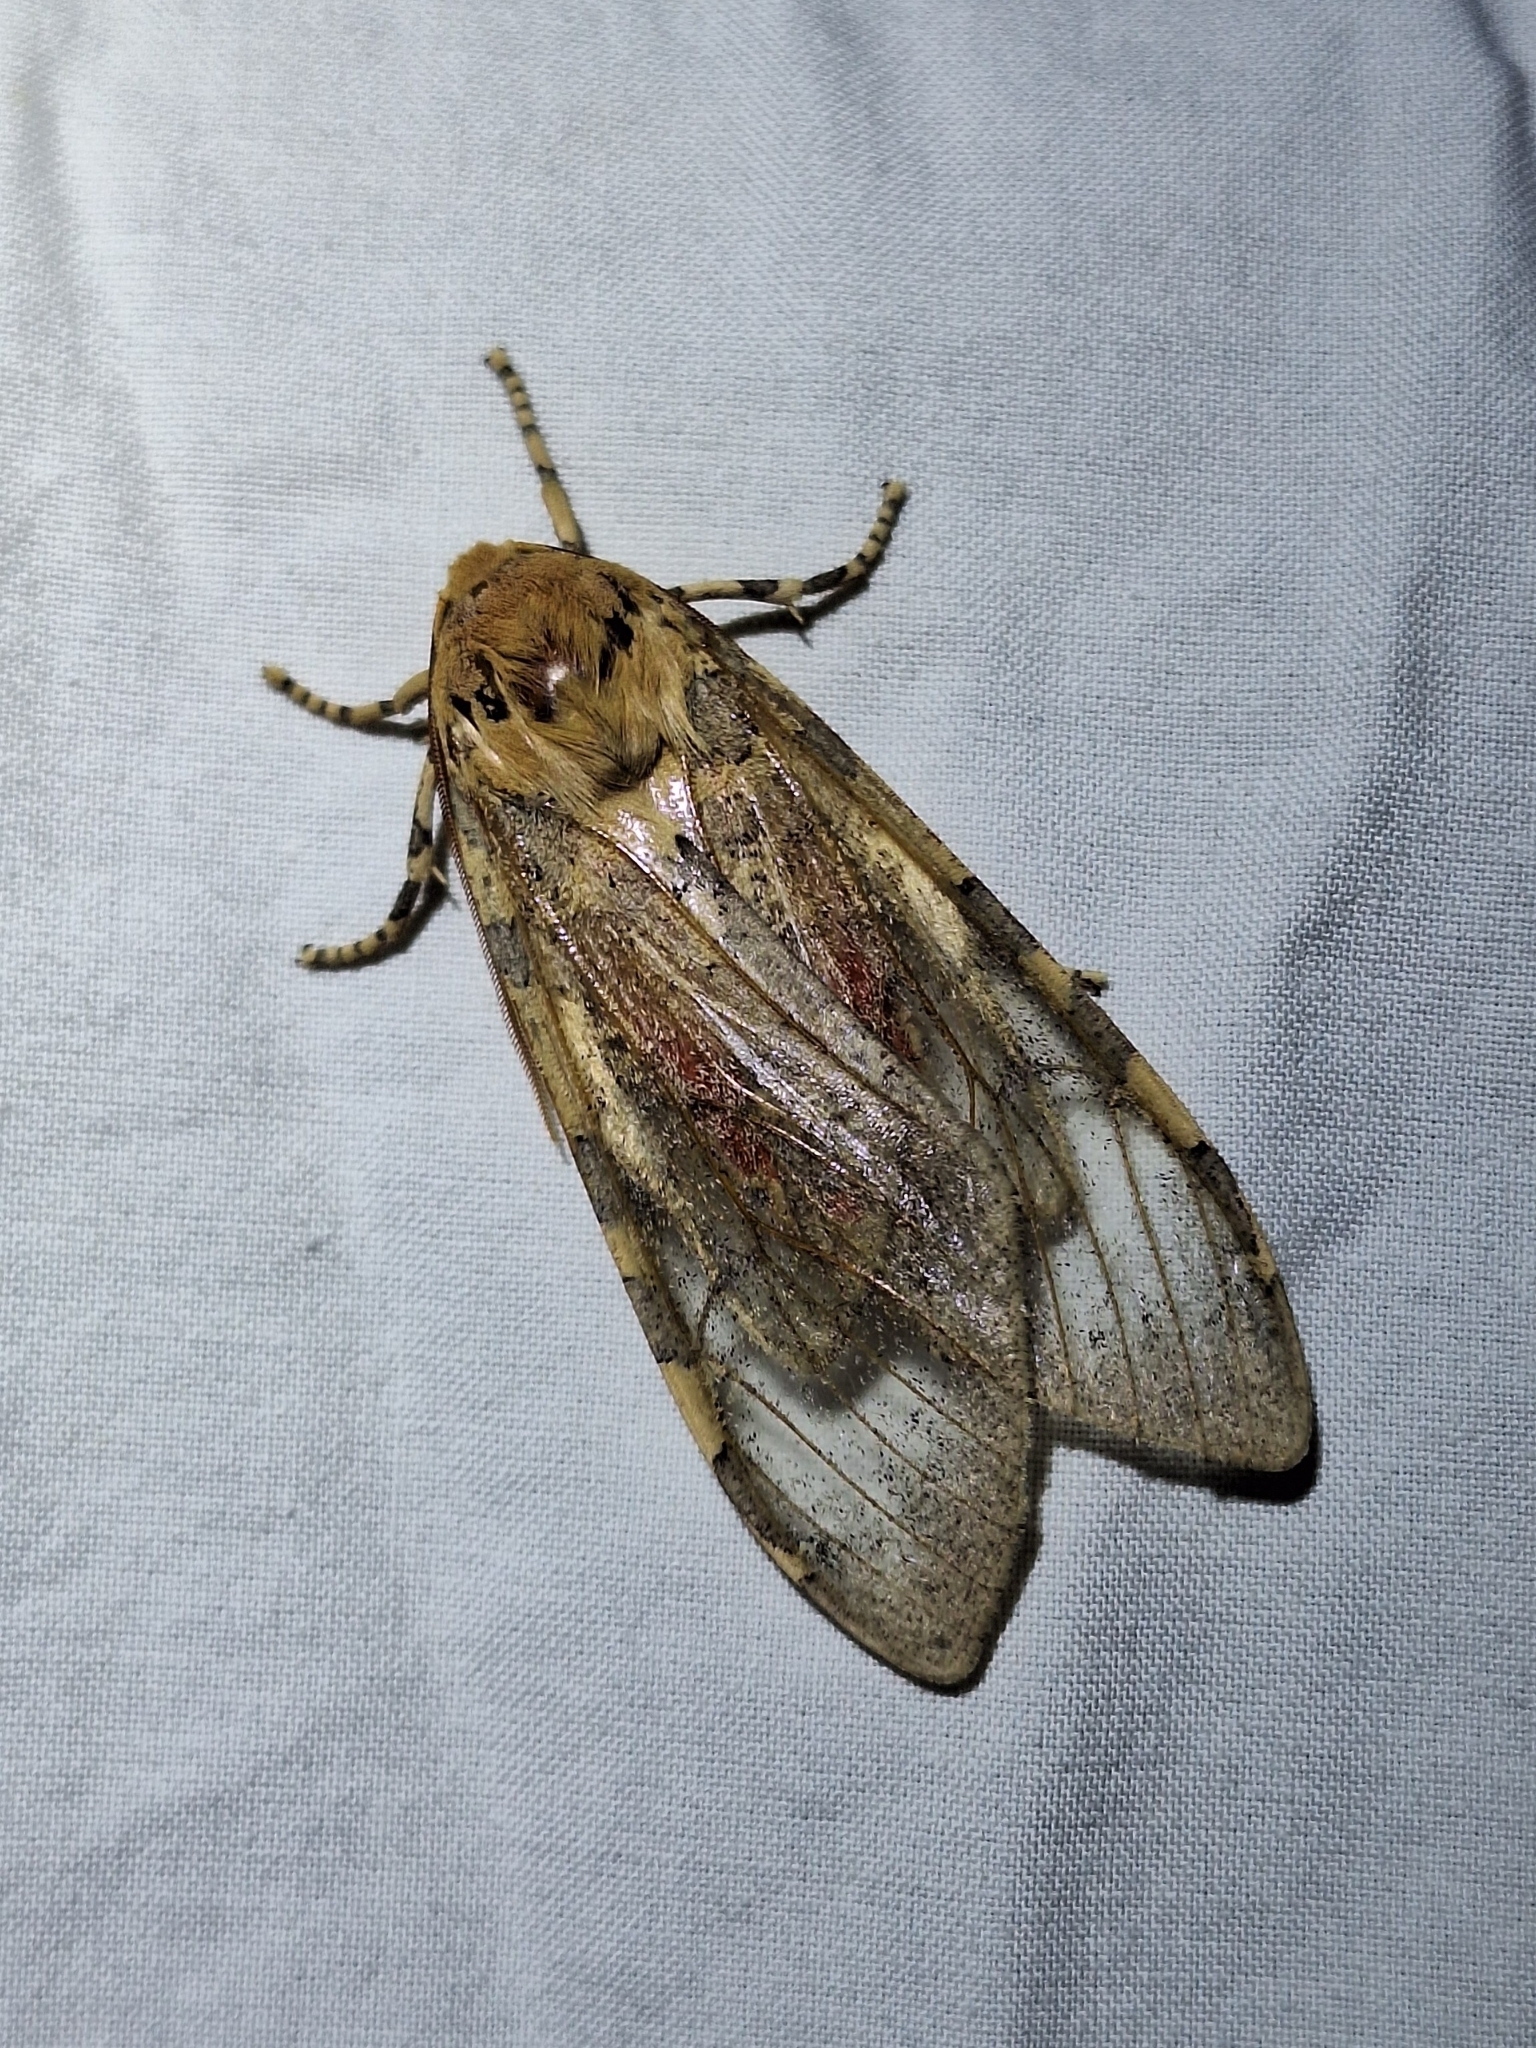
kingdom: Animalia
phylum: Arthropoda
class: Insecta
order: Lepidoptera
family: Erebidae
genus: Hemihyalea
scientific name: Hemihyalea edwardsii
